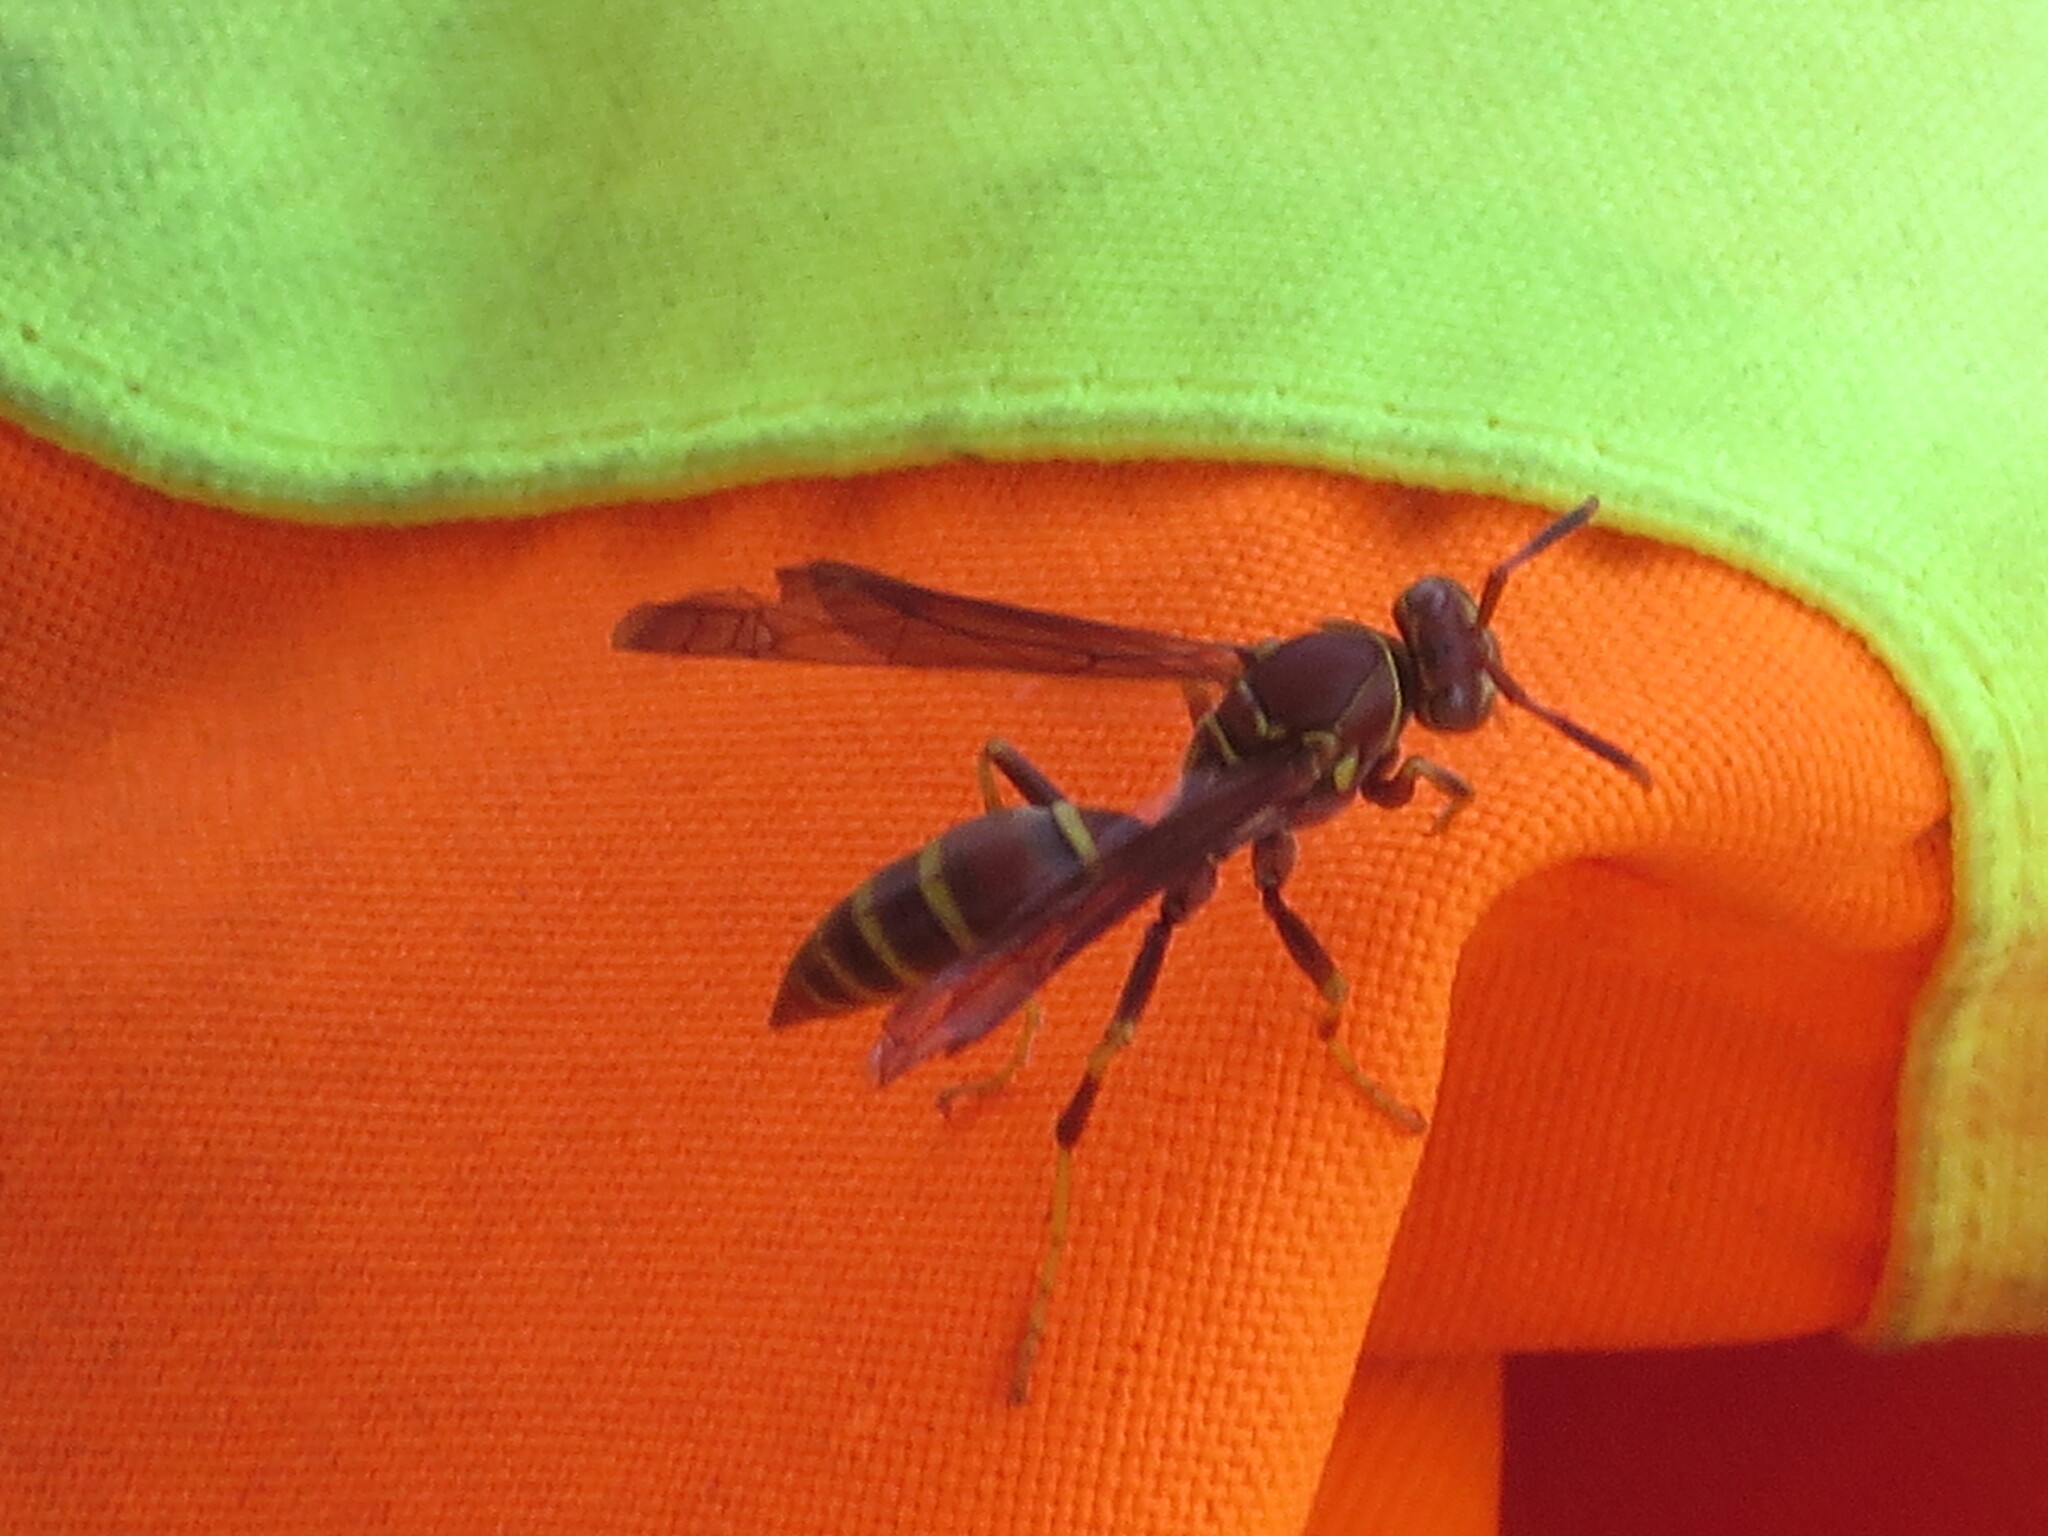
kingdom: Animalia
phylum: Arthropoda
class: Insecta
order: Hymenoptera
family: Eumenidae
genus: Polistes
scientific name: Polistes exclamans
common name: Paper wasp
